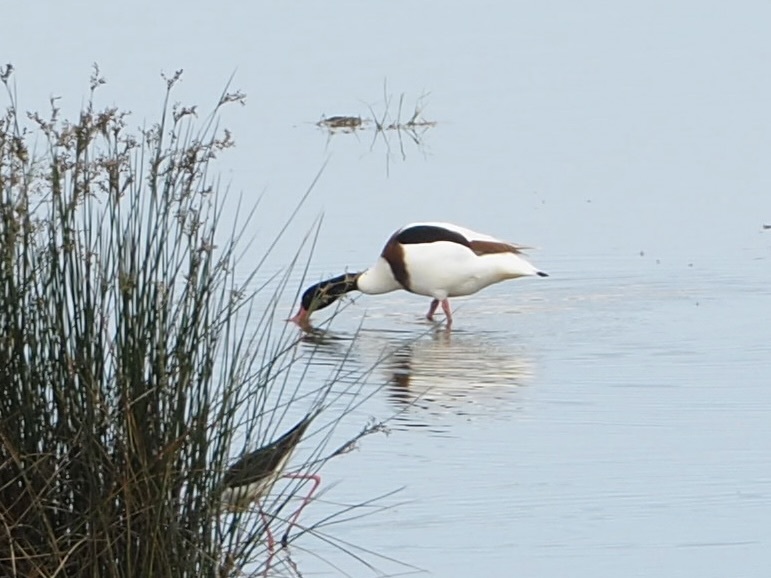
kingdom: Animalia
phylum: Chordata
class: Aves
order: Anseriformes
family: Anatidae
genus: Tadorna
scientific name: Tadorna tadorna
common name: Common shelduck
